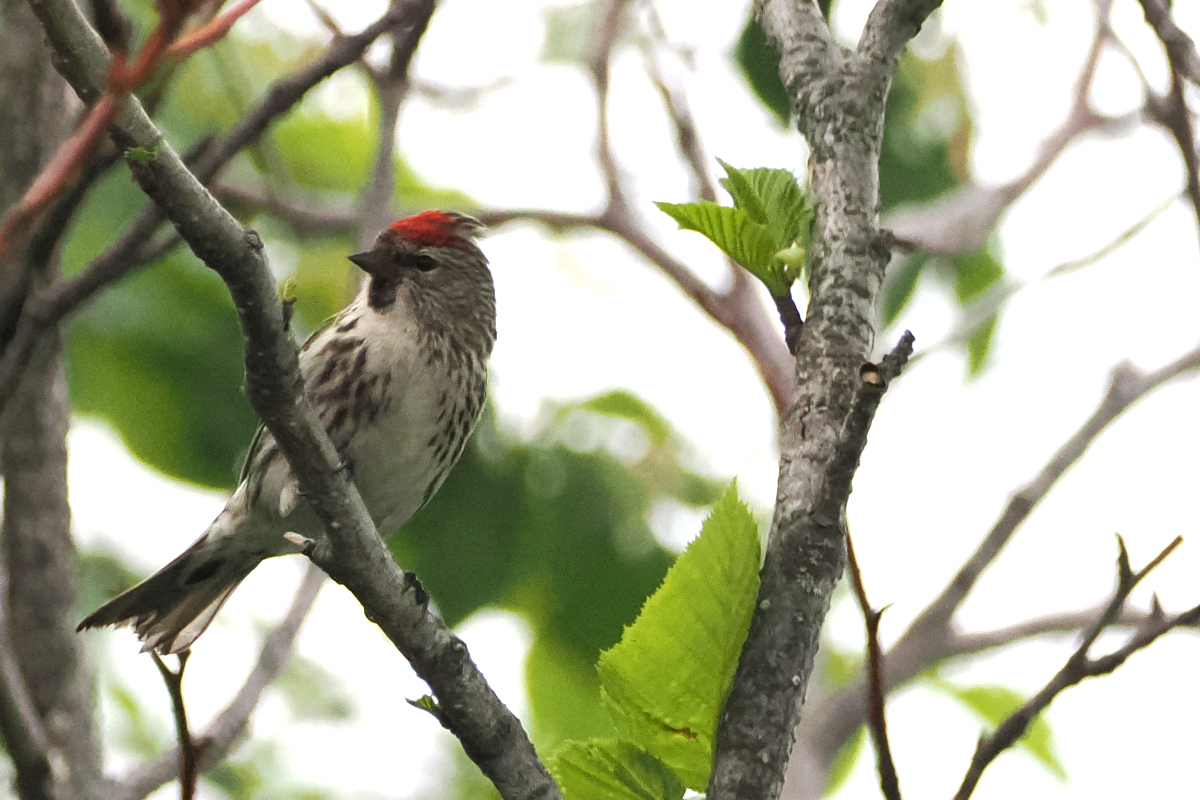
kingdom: Animalia
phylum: Chordata
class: Aves
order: Passeriformes
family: Fringillidae
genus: Acanthis
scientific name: Acanthis flammea
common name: Common redpoll
